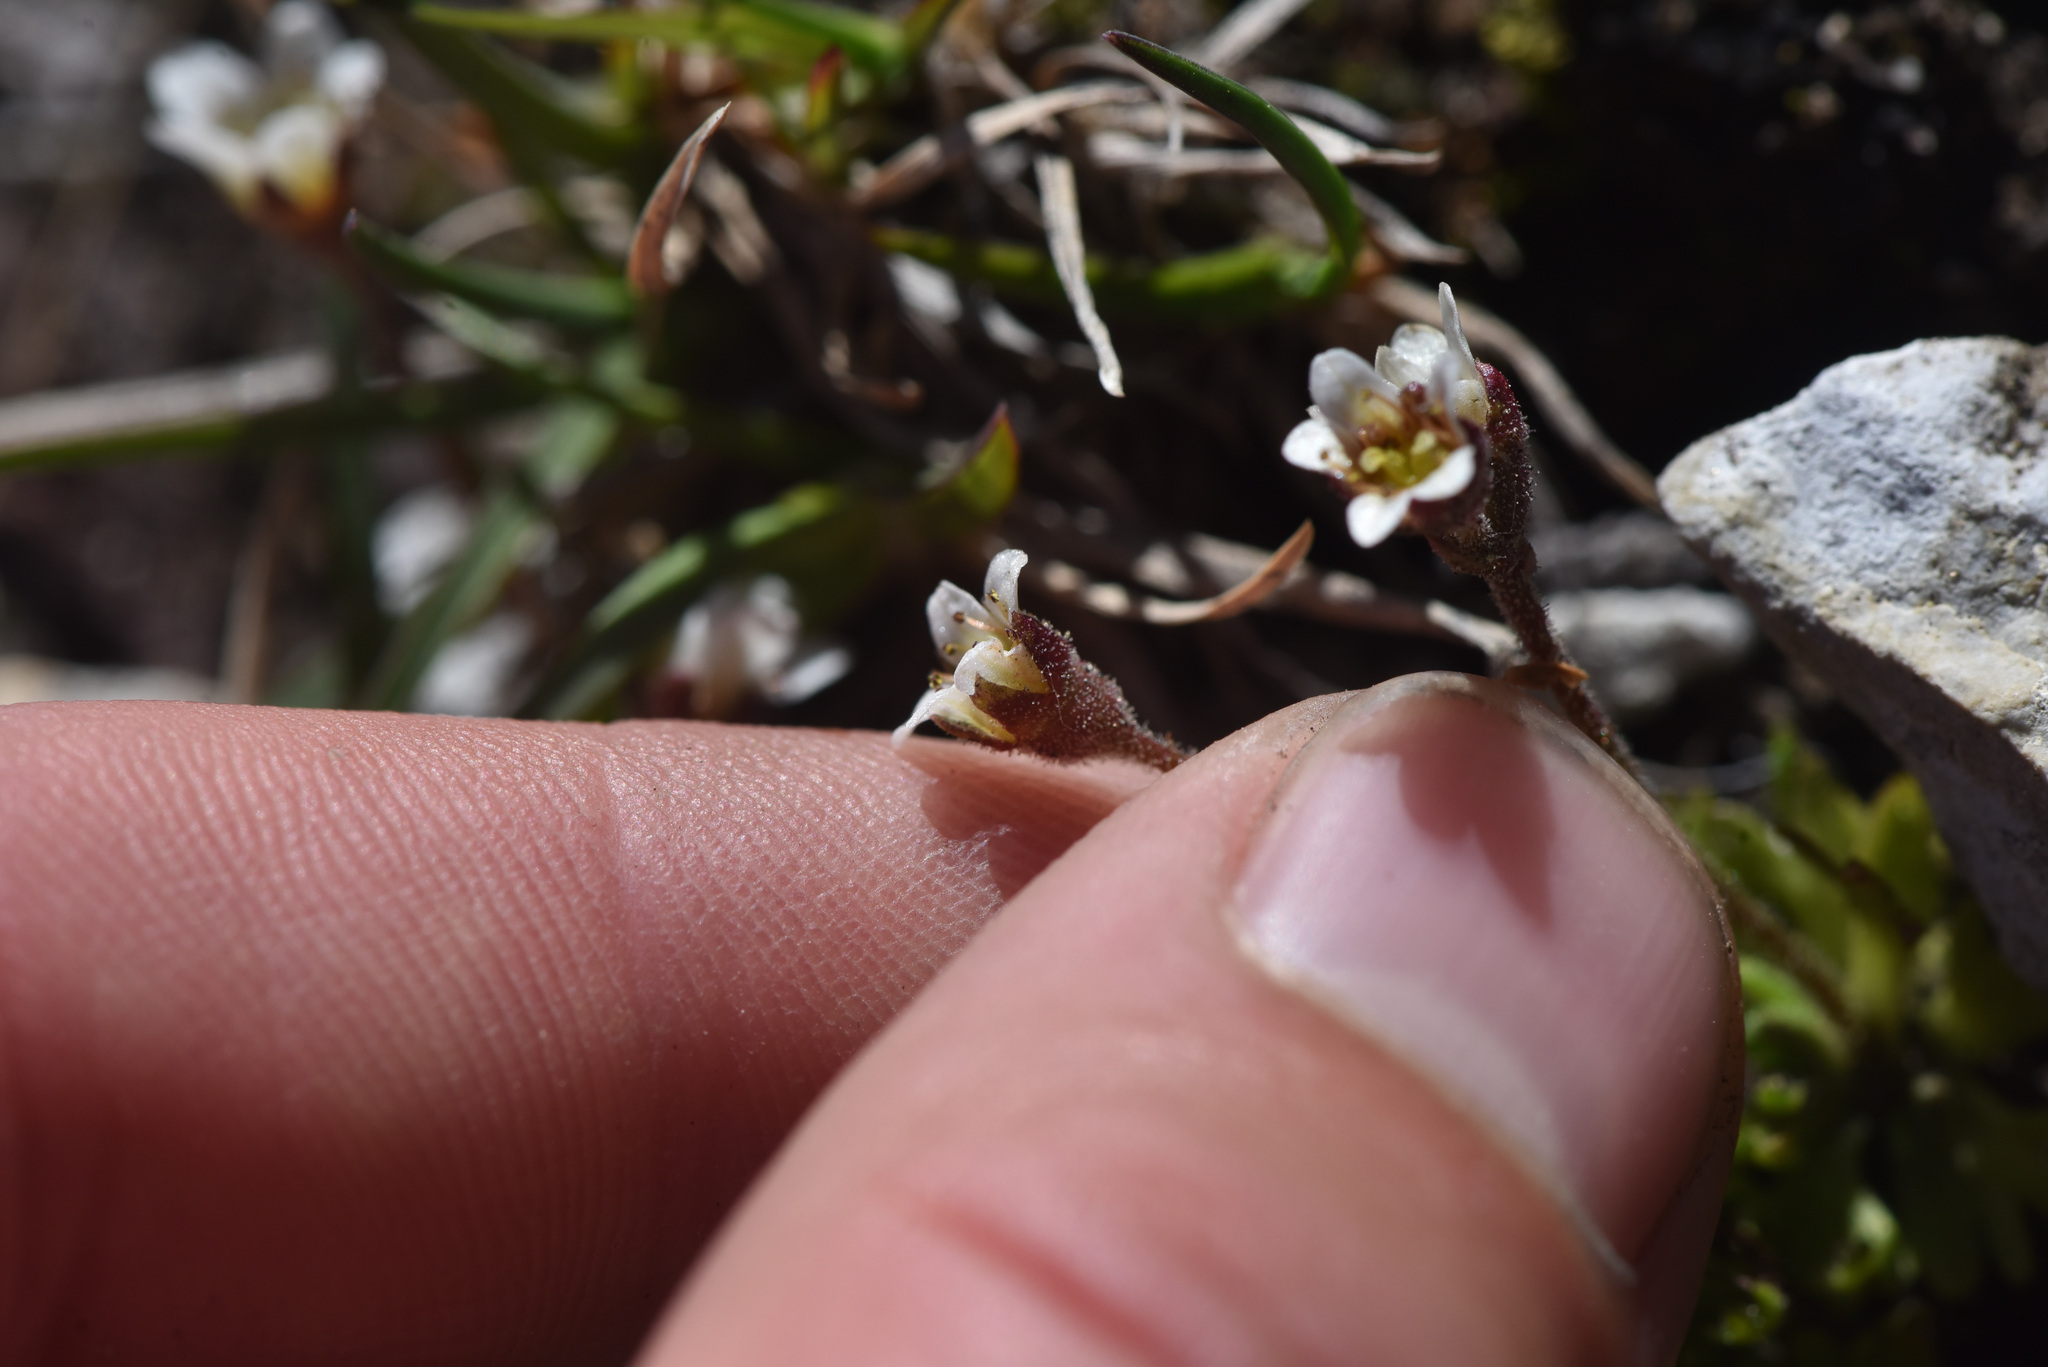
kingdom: Plantae
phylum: Tracheophyta
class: Magnoliopsida
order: Saxifragales
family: Saxifragaceae
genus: Saxifraga
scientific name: Saxifraga cespitosa
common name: Tufted saxifrage
